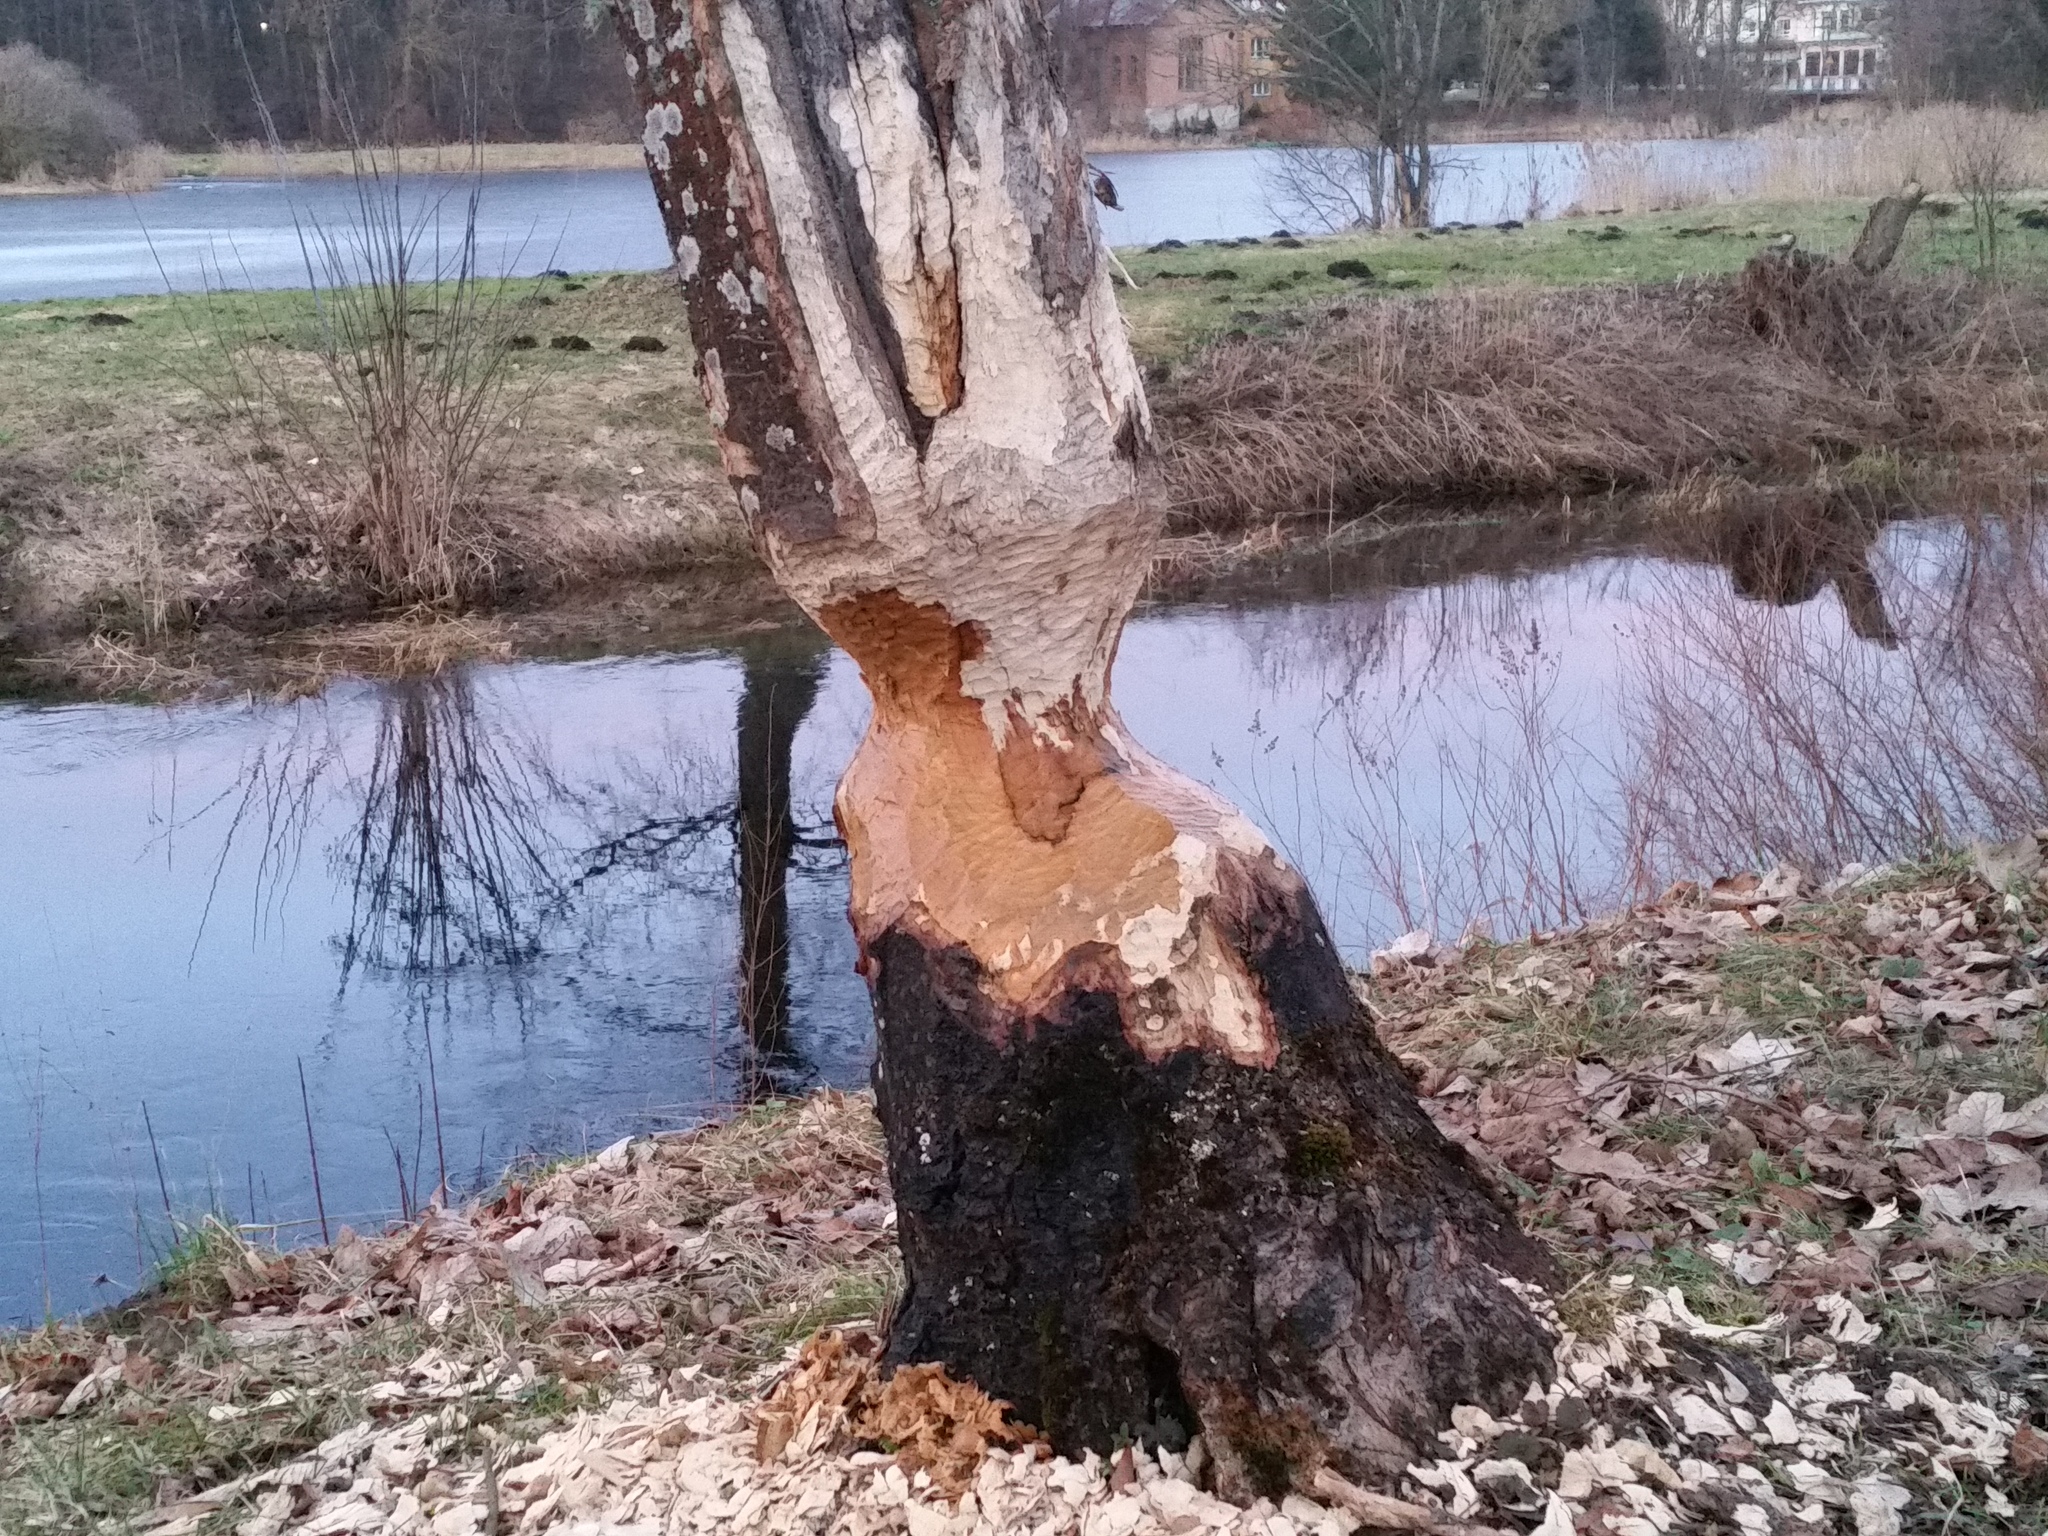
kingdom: Animalia
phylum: Chordata
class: Mammalia
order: Rodentia
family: Castoridae
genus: Castor
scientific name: Castor fiber
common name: Eurasian beaver
